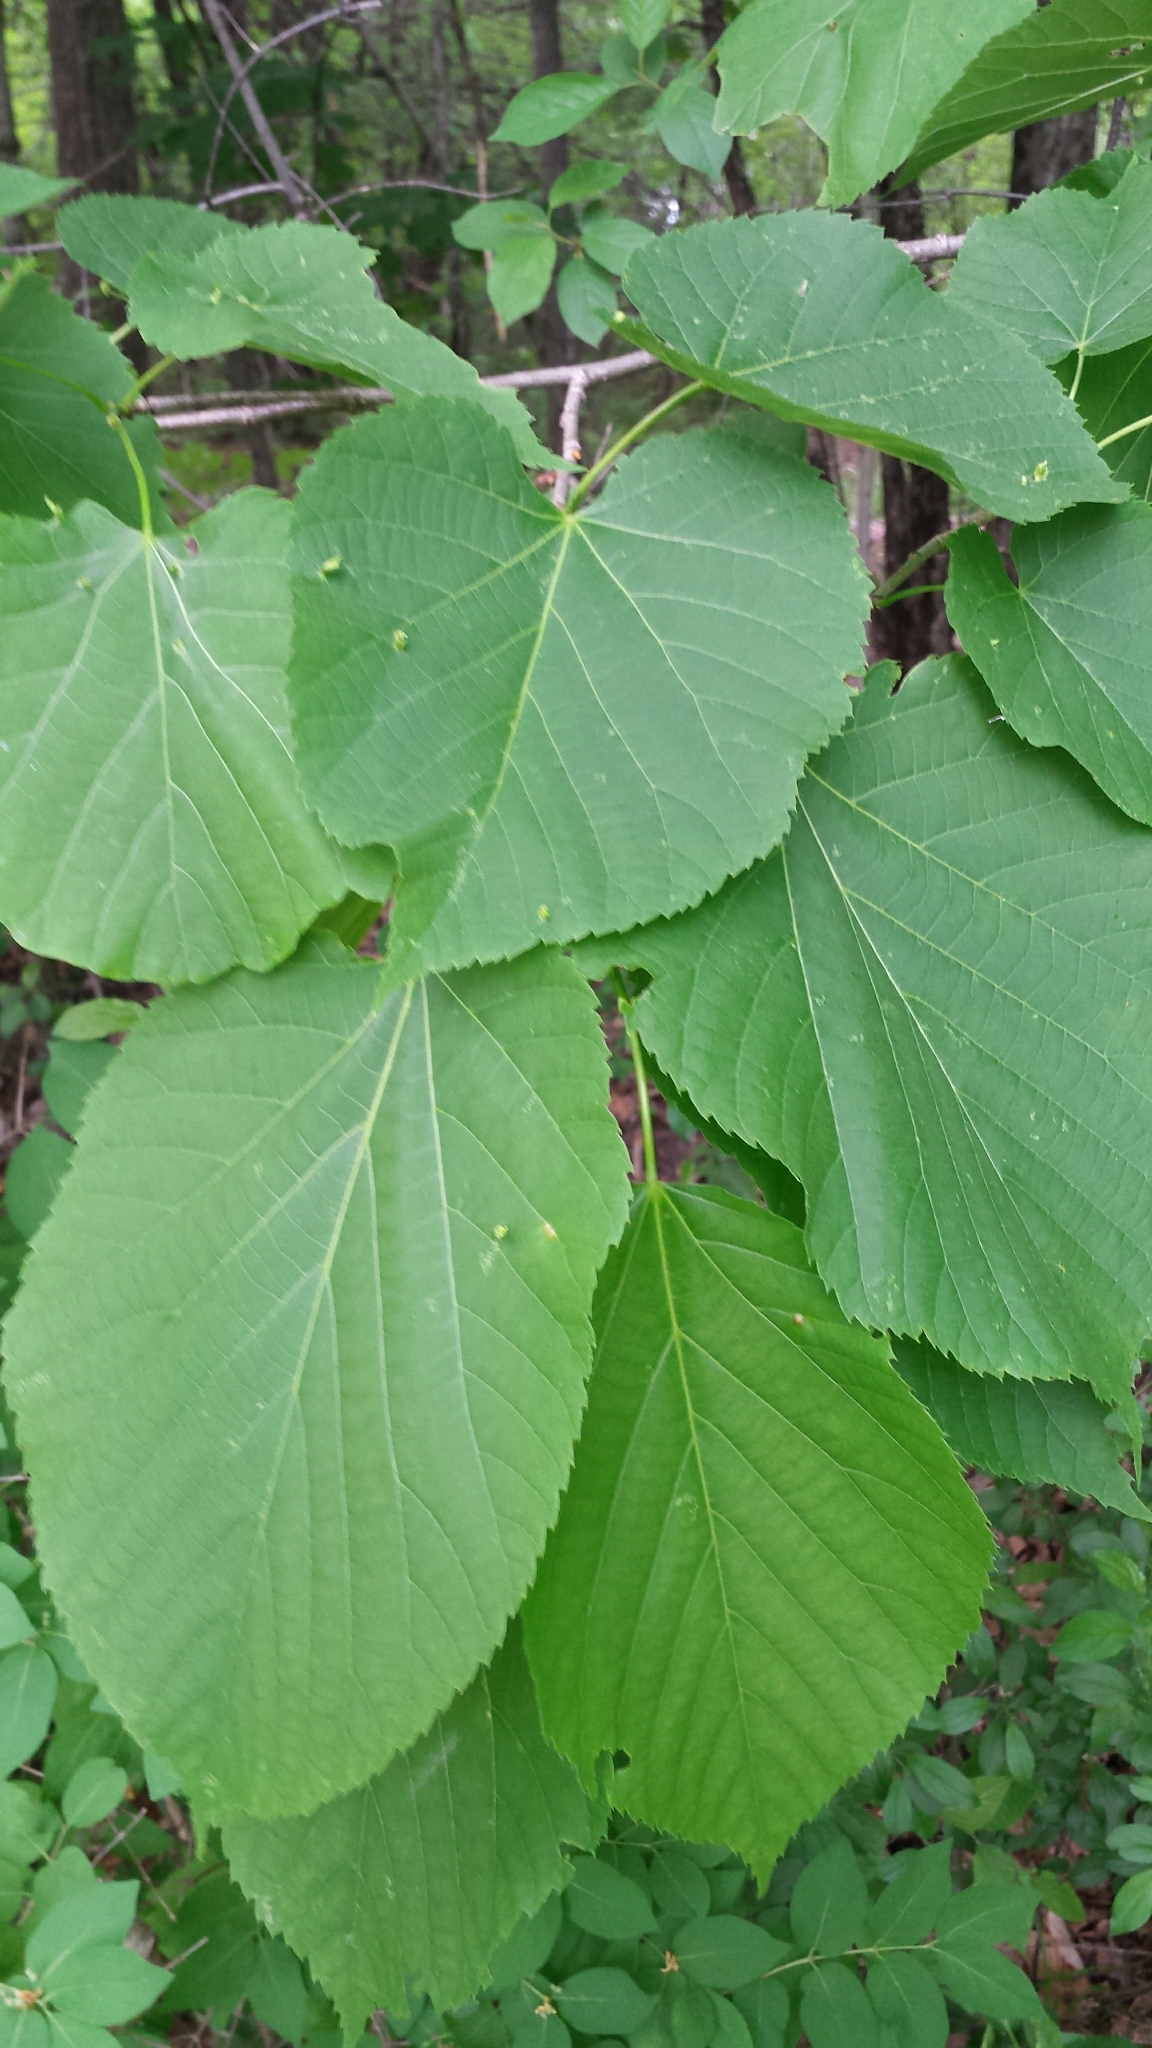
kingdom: Plantae
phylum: Tracheophyta
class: Magnoliopsida
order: Malvales
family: Malvaceae
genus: Tilia
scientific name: Tilia americana
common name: Basswood
